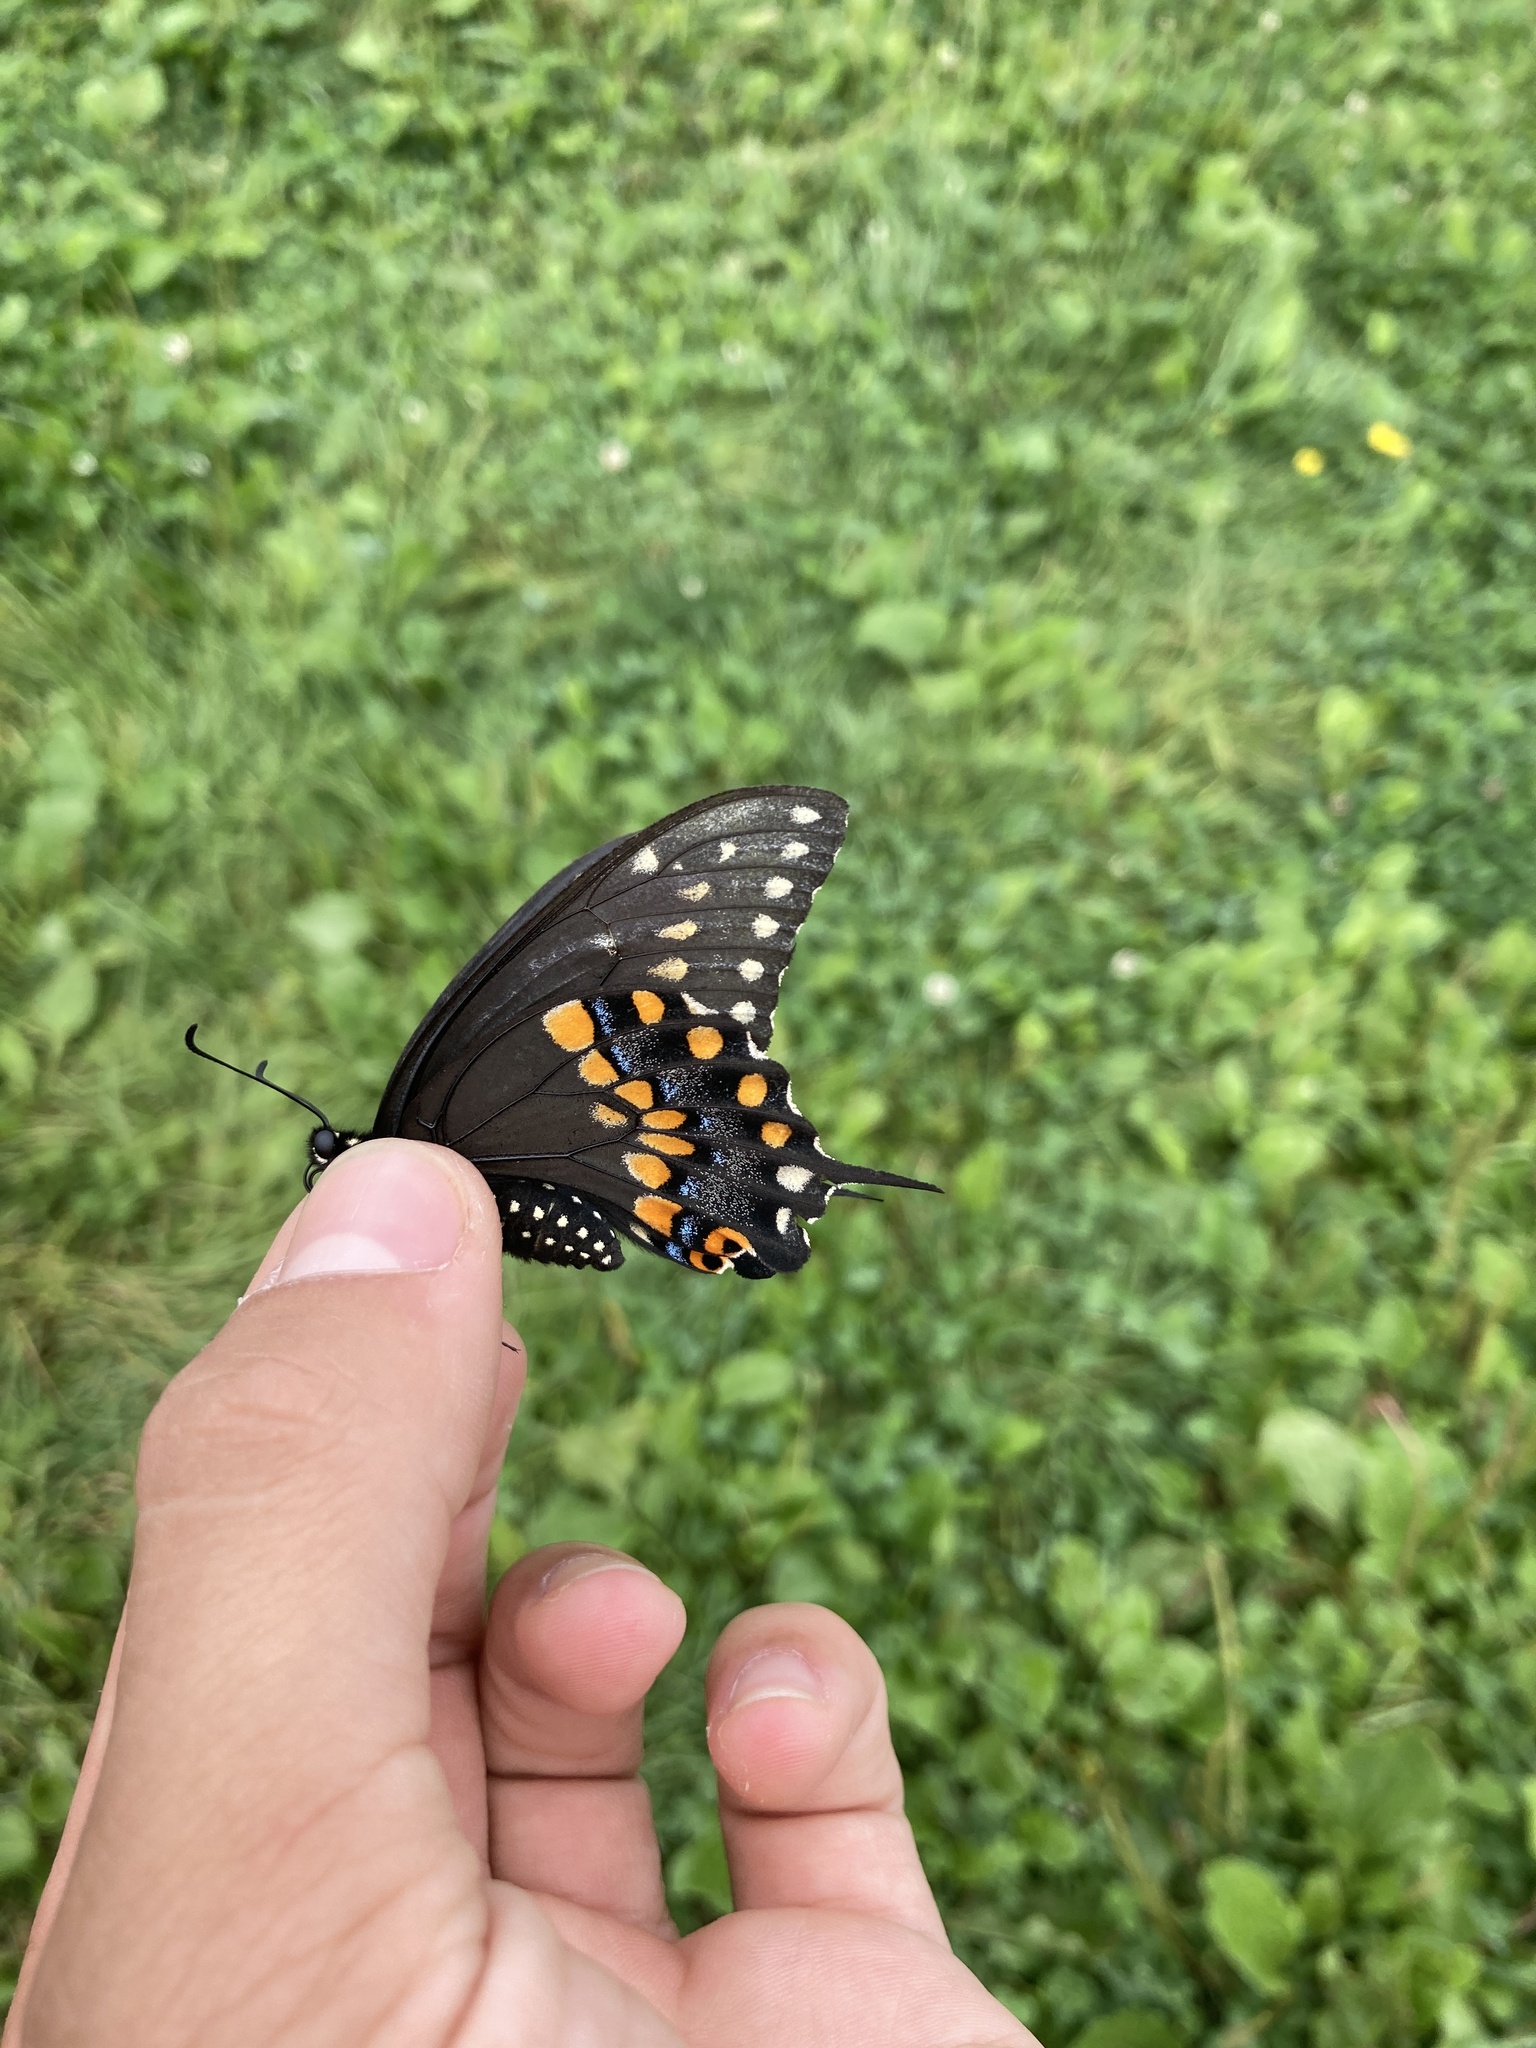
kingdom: Animalia
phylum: Arthropoda
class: Insecta
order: Lepidoptera
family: Papilionidae
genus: Papilio
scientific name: Papilio polyxenes
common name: Black swallowtail
